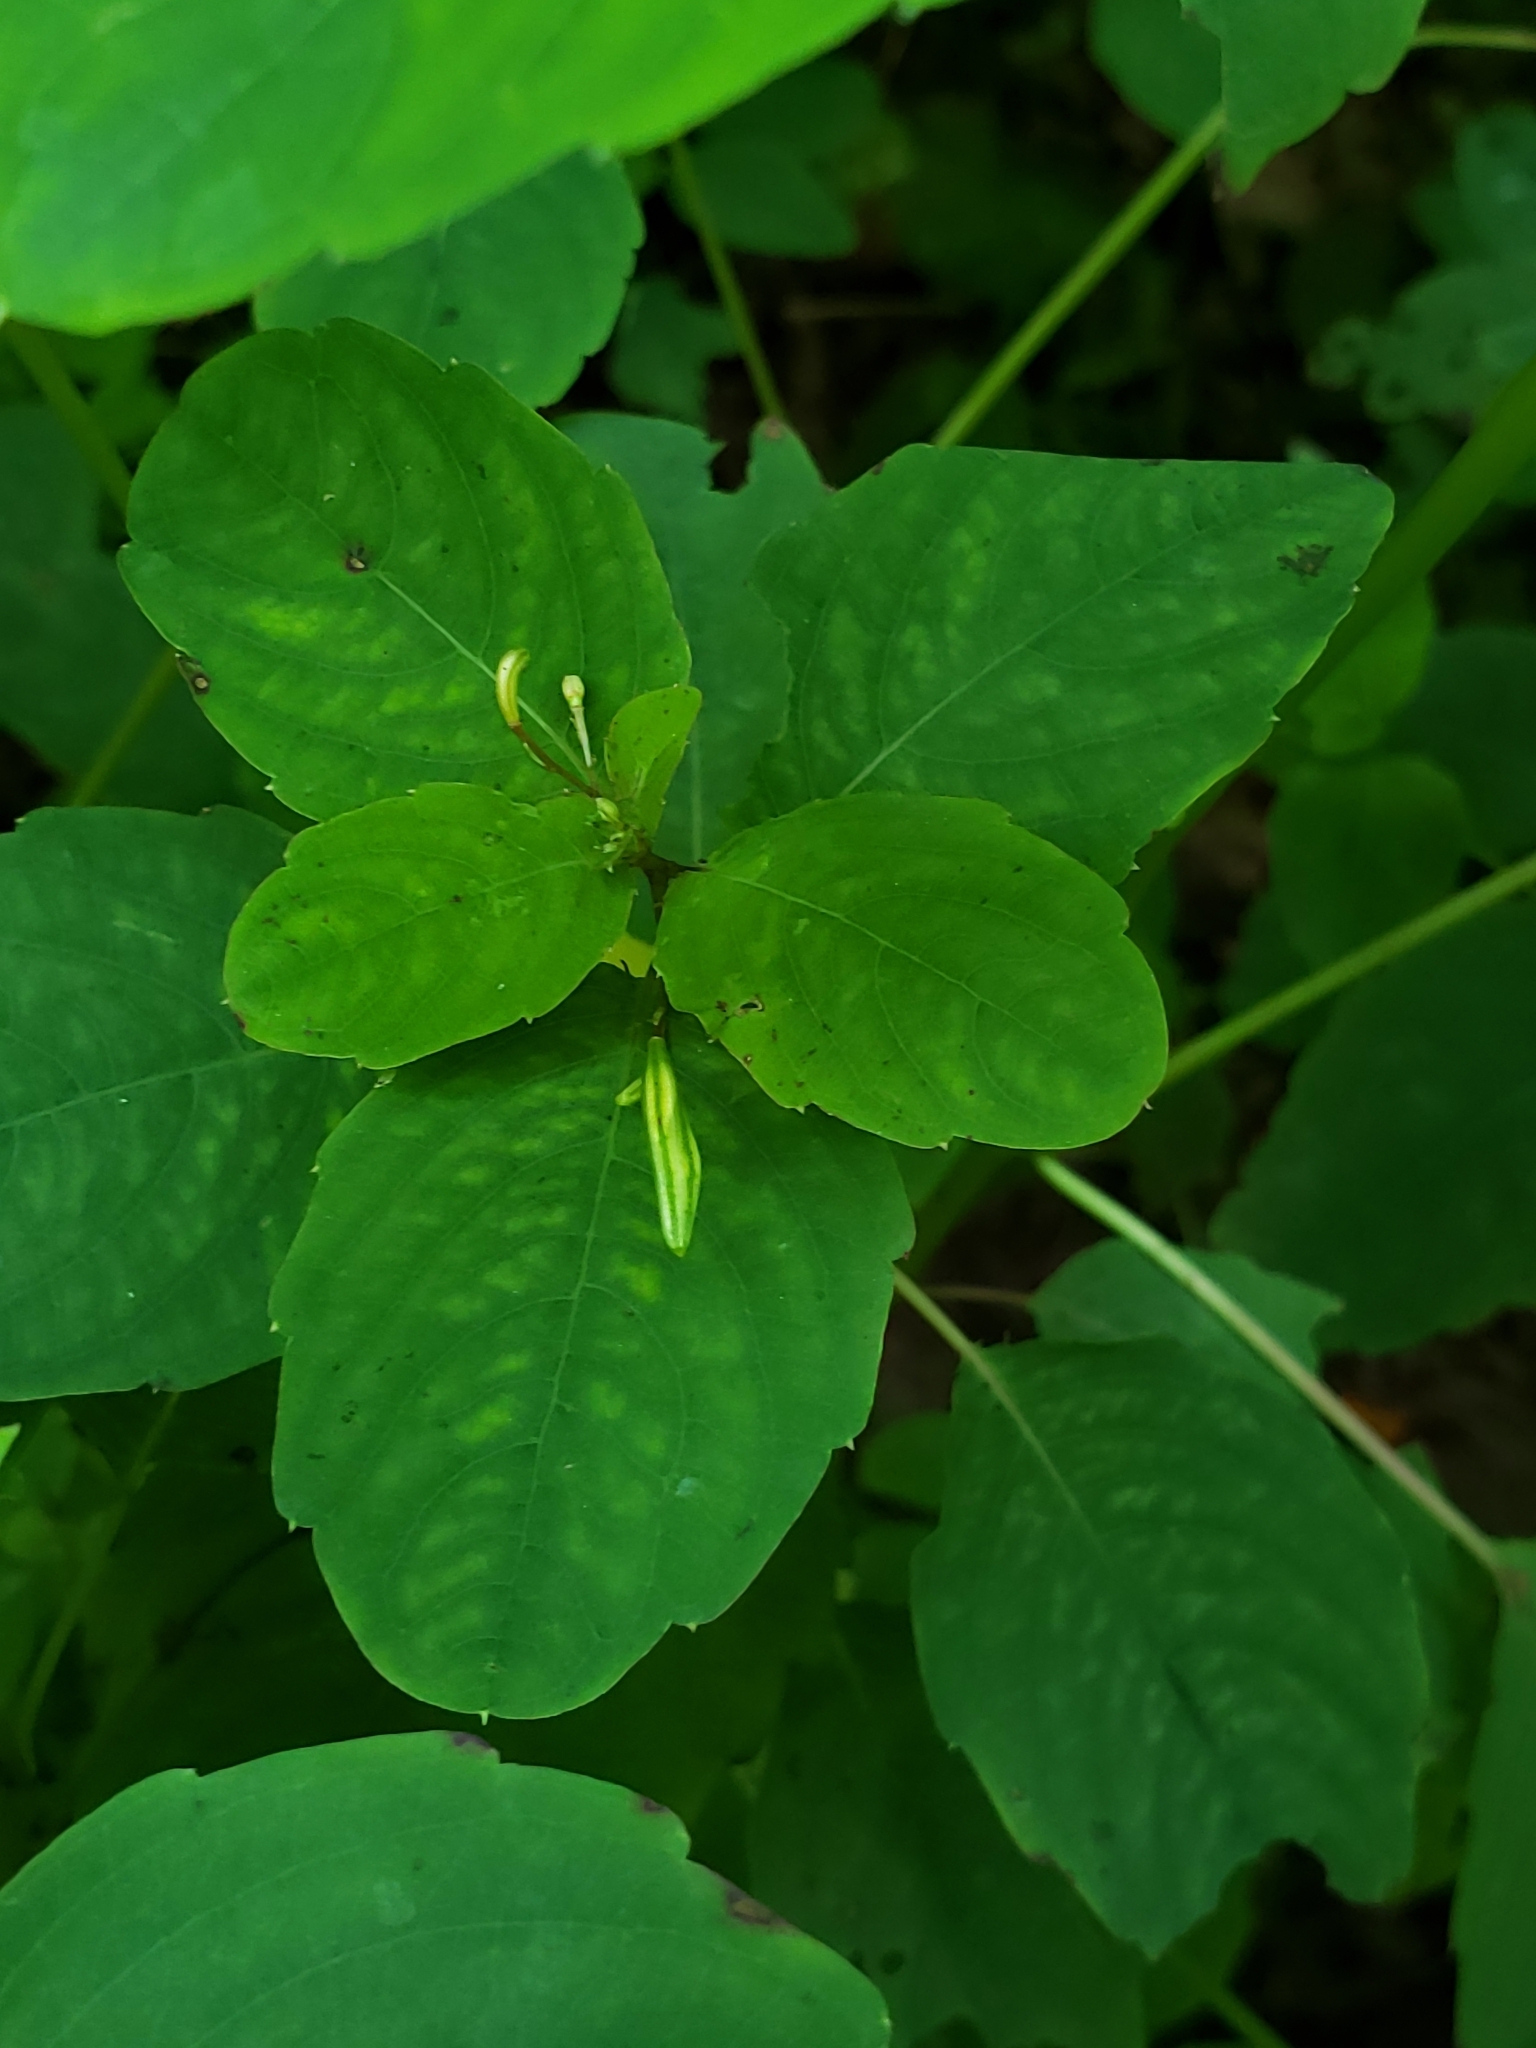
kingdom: Plantae
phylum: Tracheophyta
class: Magnoliopsida
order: Ericales
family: Balsaminaceae
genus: Impatiens
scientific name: Impatiens capensis
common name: Orange balsam
